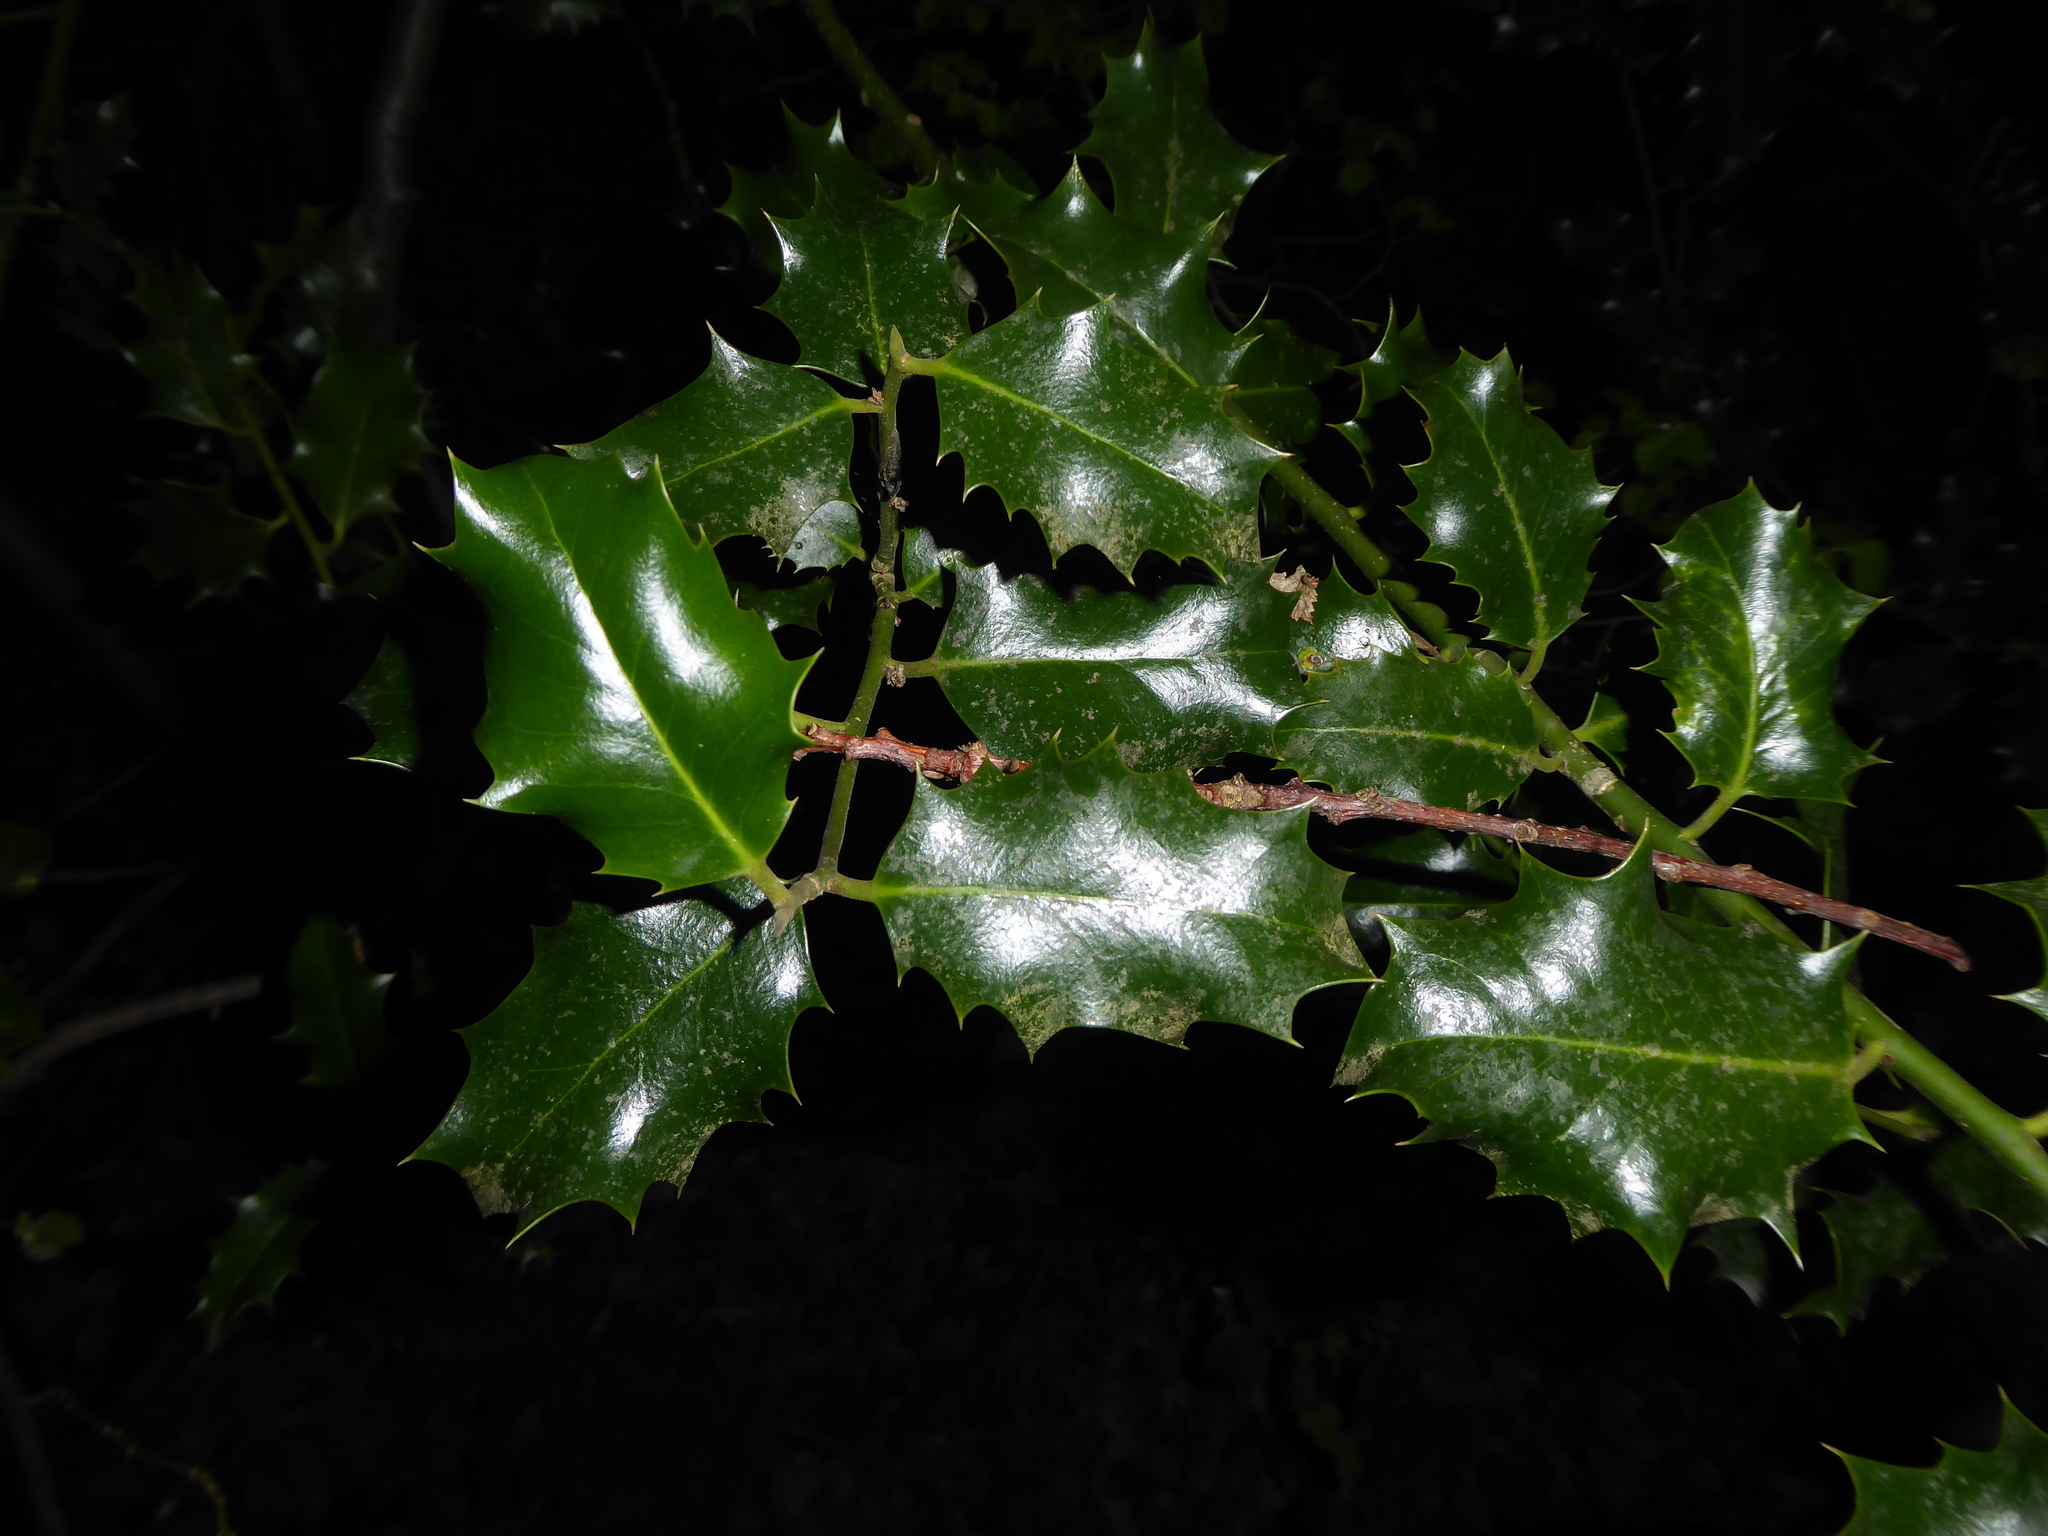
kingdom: Plantae
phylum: Tracheophyta
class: Magnoliopsida
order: Aquifoliales
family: Aquifoliaceae
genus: Ilex
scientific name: Ilex aquifolium
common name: English holly
